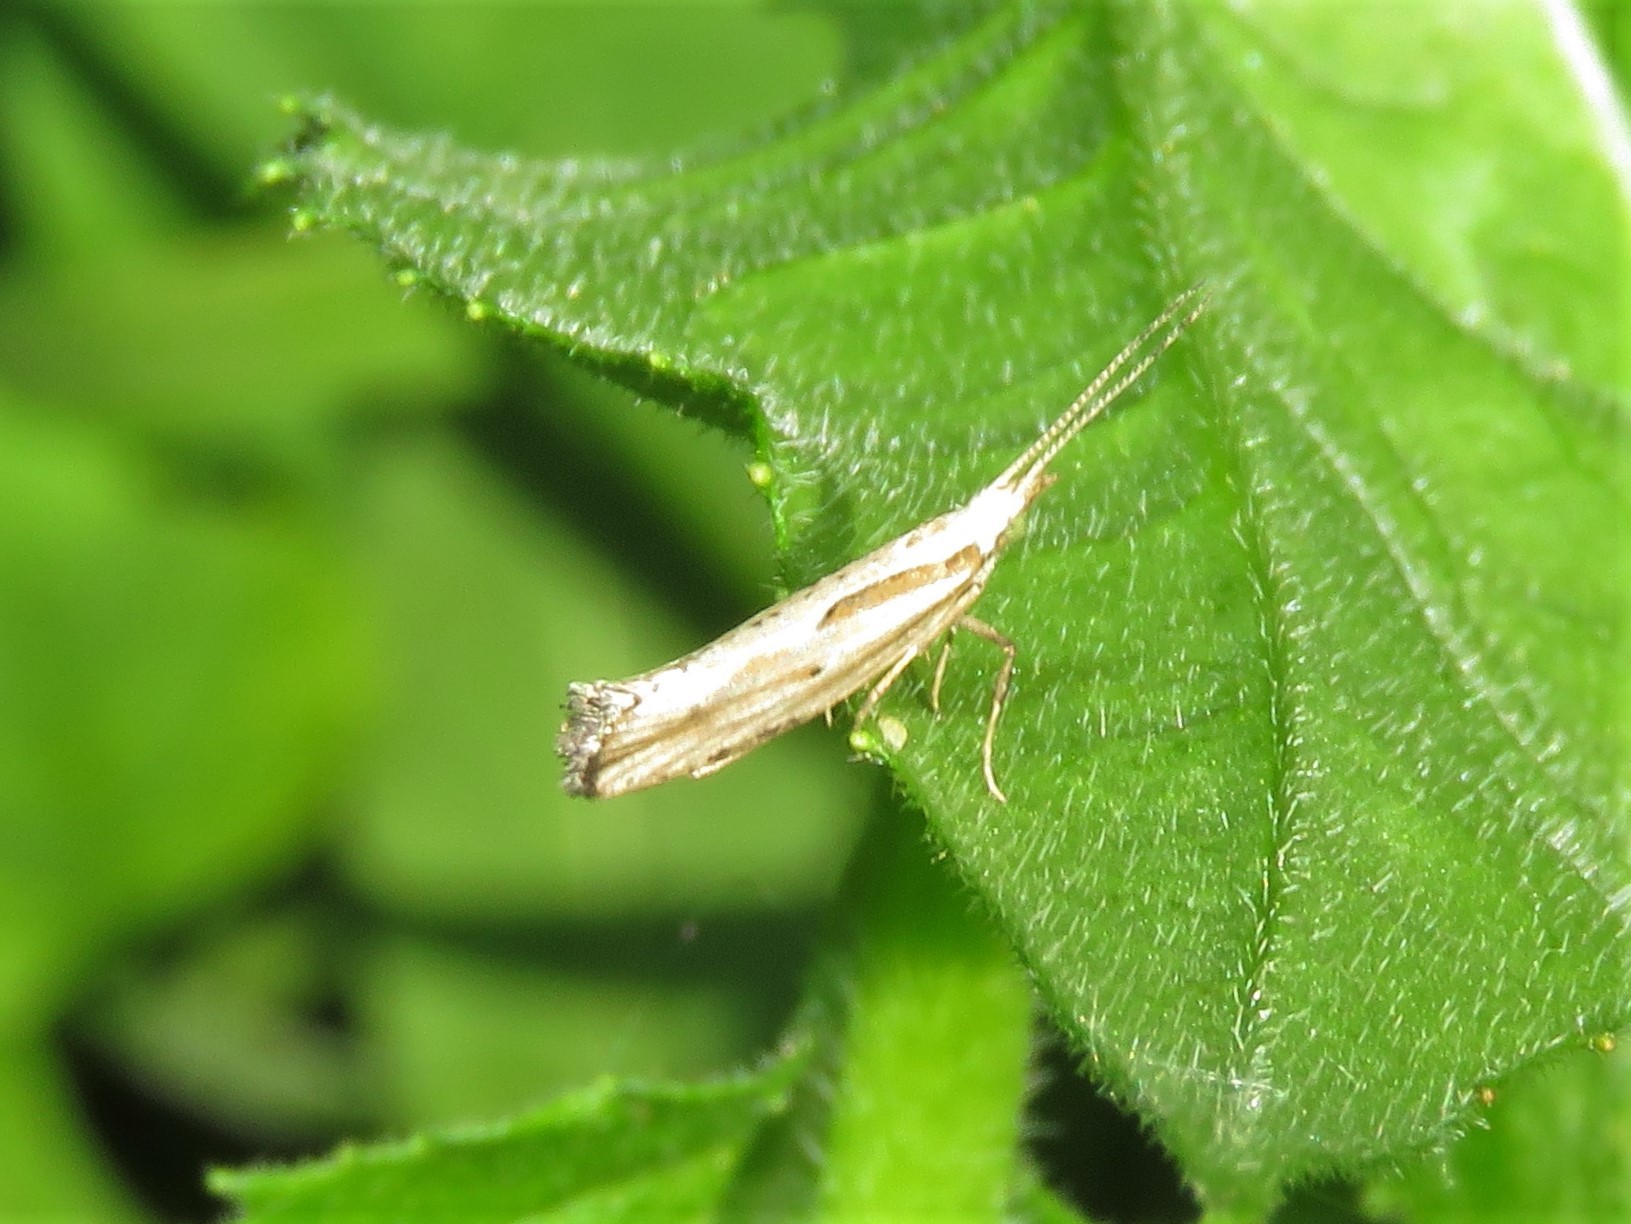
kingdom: Animalia
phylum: Arthropoda
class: Insecta
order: Lepidoptera
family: Plutellidae
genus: Plutella
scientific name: Plutella porrectella
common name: Dame's rocket moth
